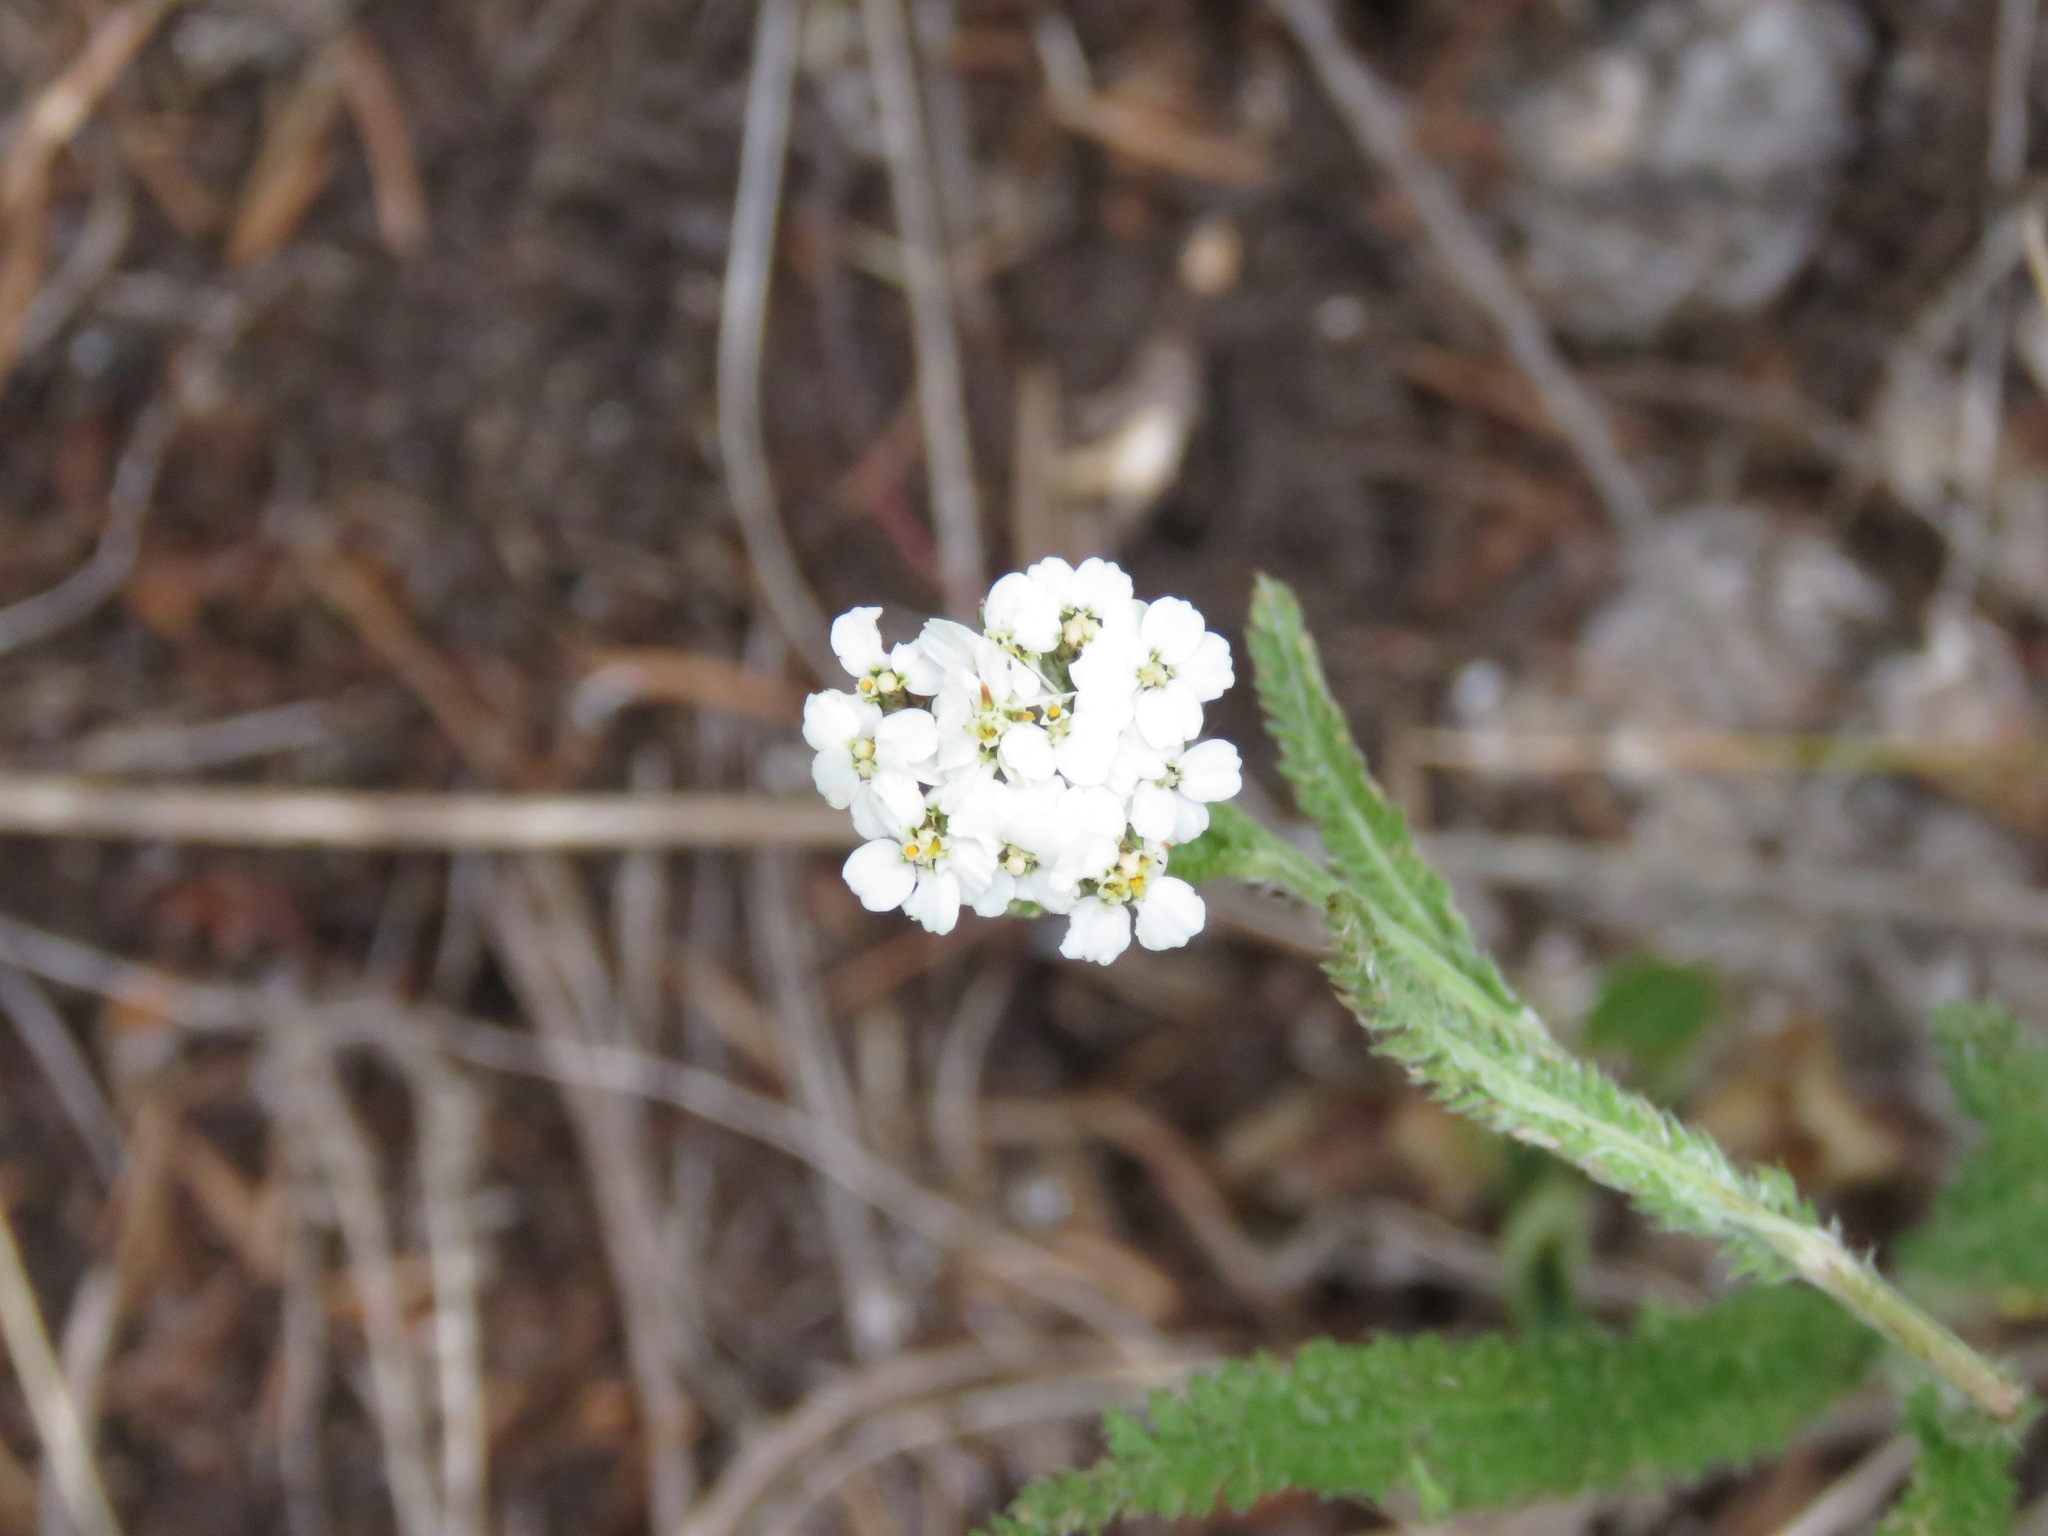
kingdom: Plantae
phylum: Tracheophyta
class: Magnoliopsida
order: Asterales
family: Asteraceae
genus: Achillea
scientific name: Achillea millefolium
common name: Yarrow
